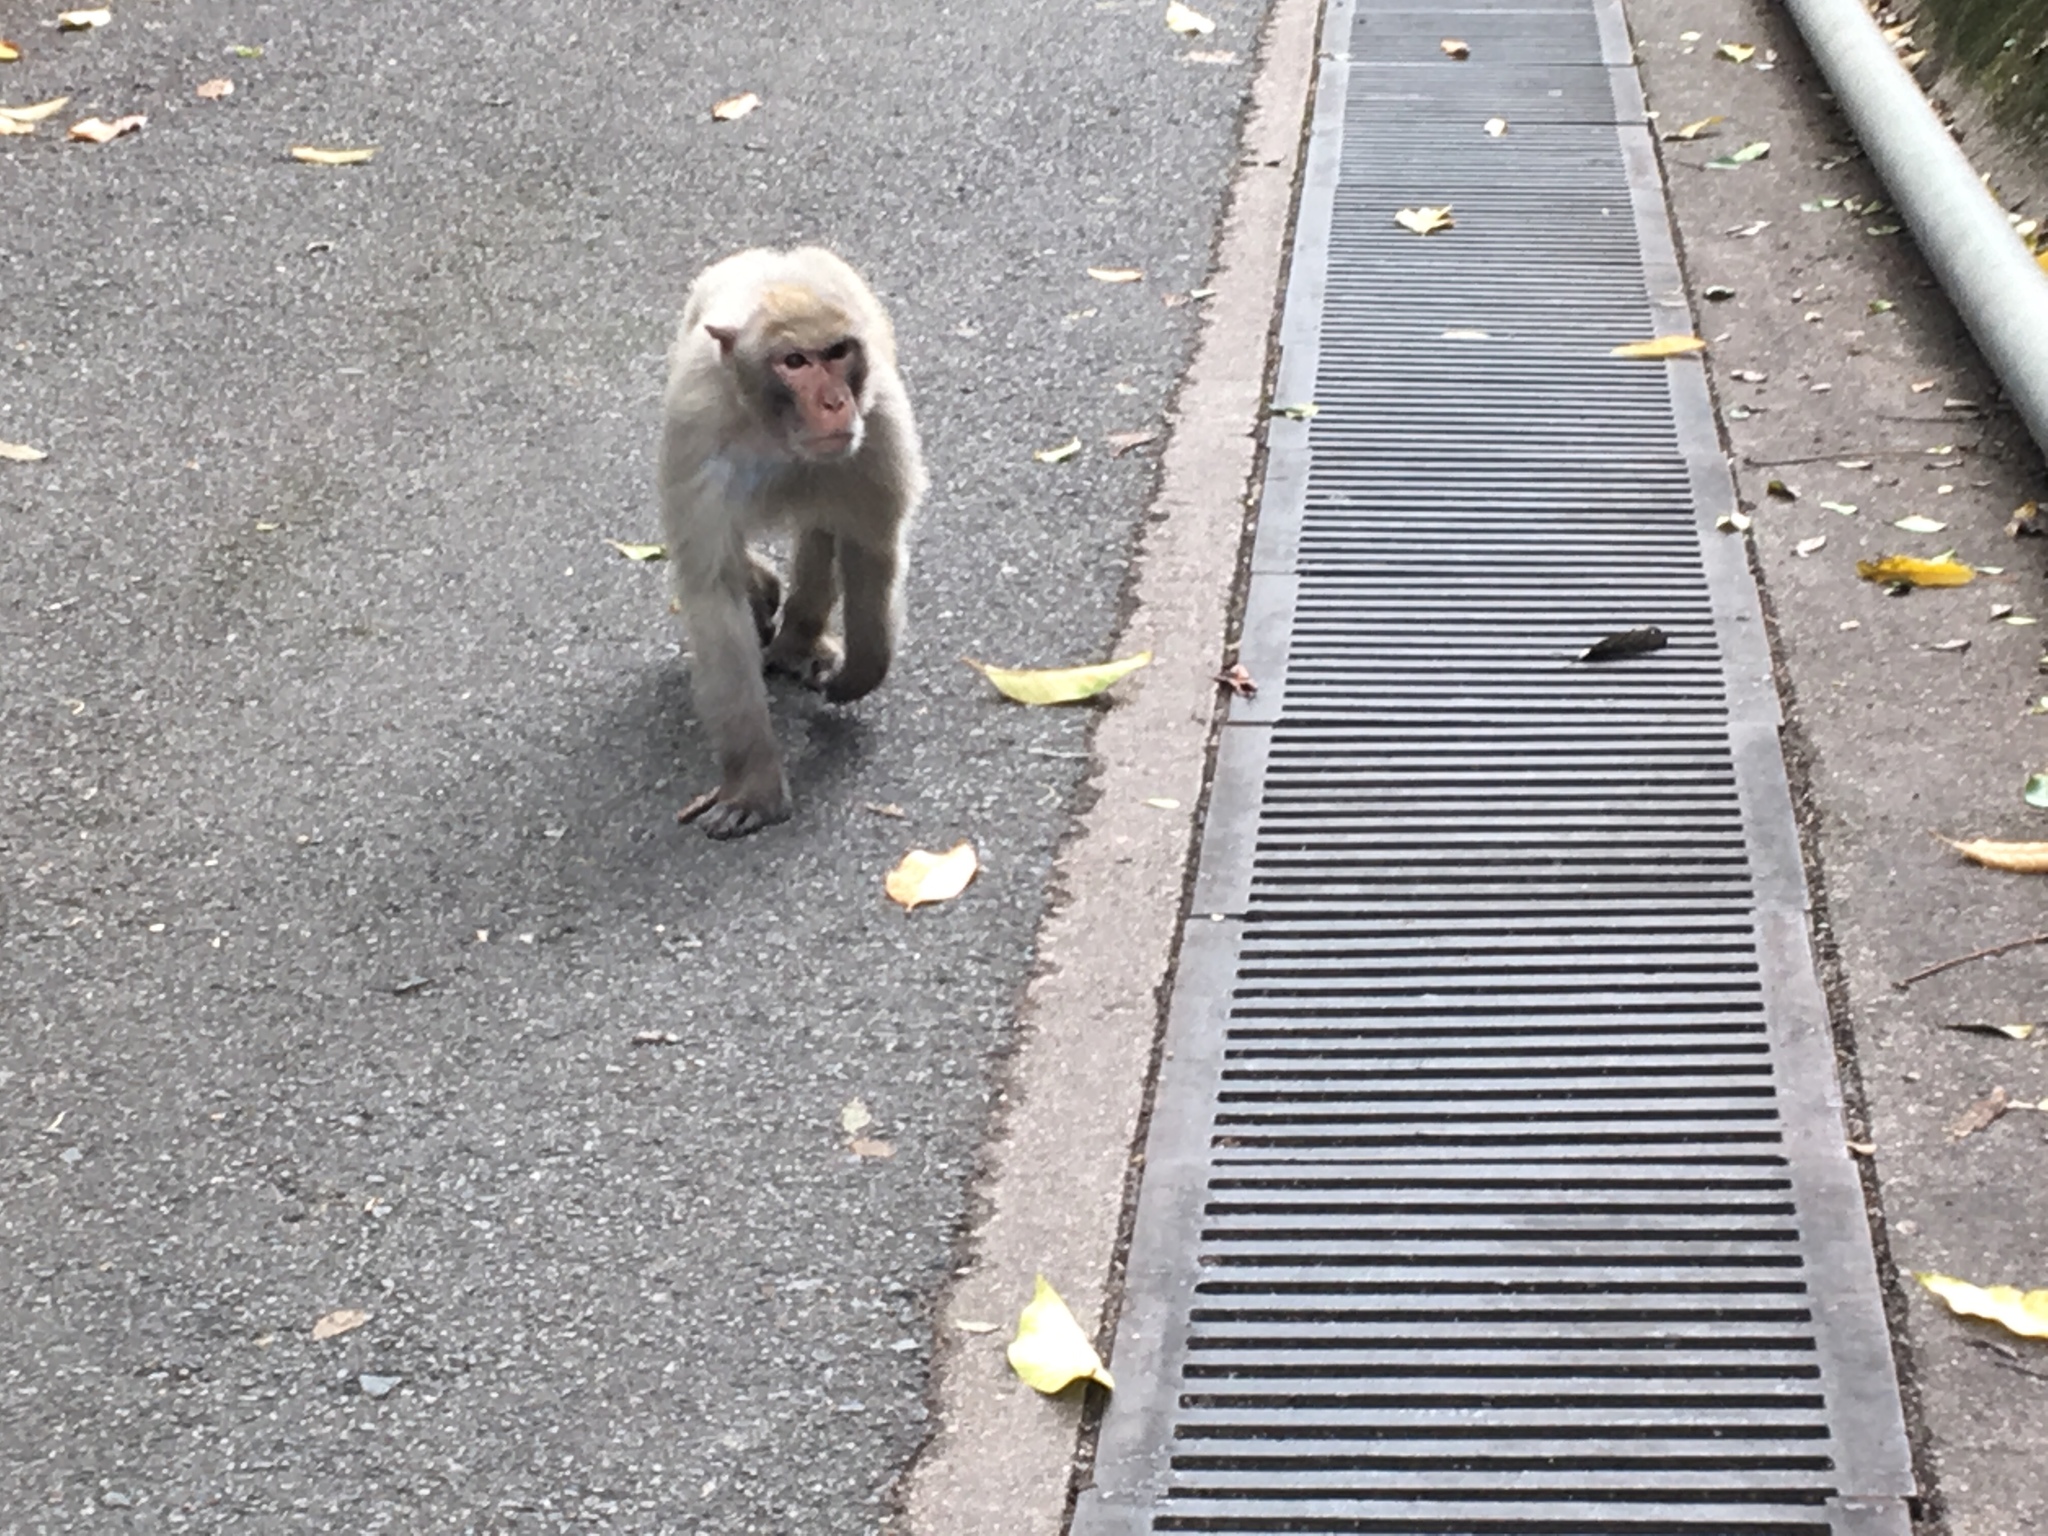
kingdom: Animalia
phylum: Chordata
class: Mammalia
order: Primates
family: Cercopithecidae
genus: Macaca
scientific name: Macaca mulatta
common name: Rhesus monkey
